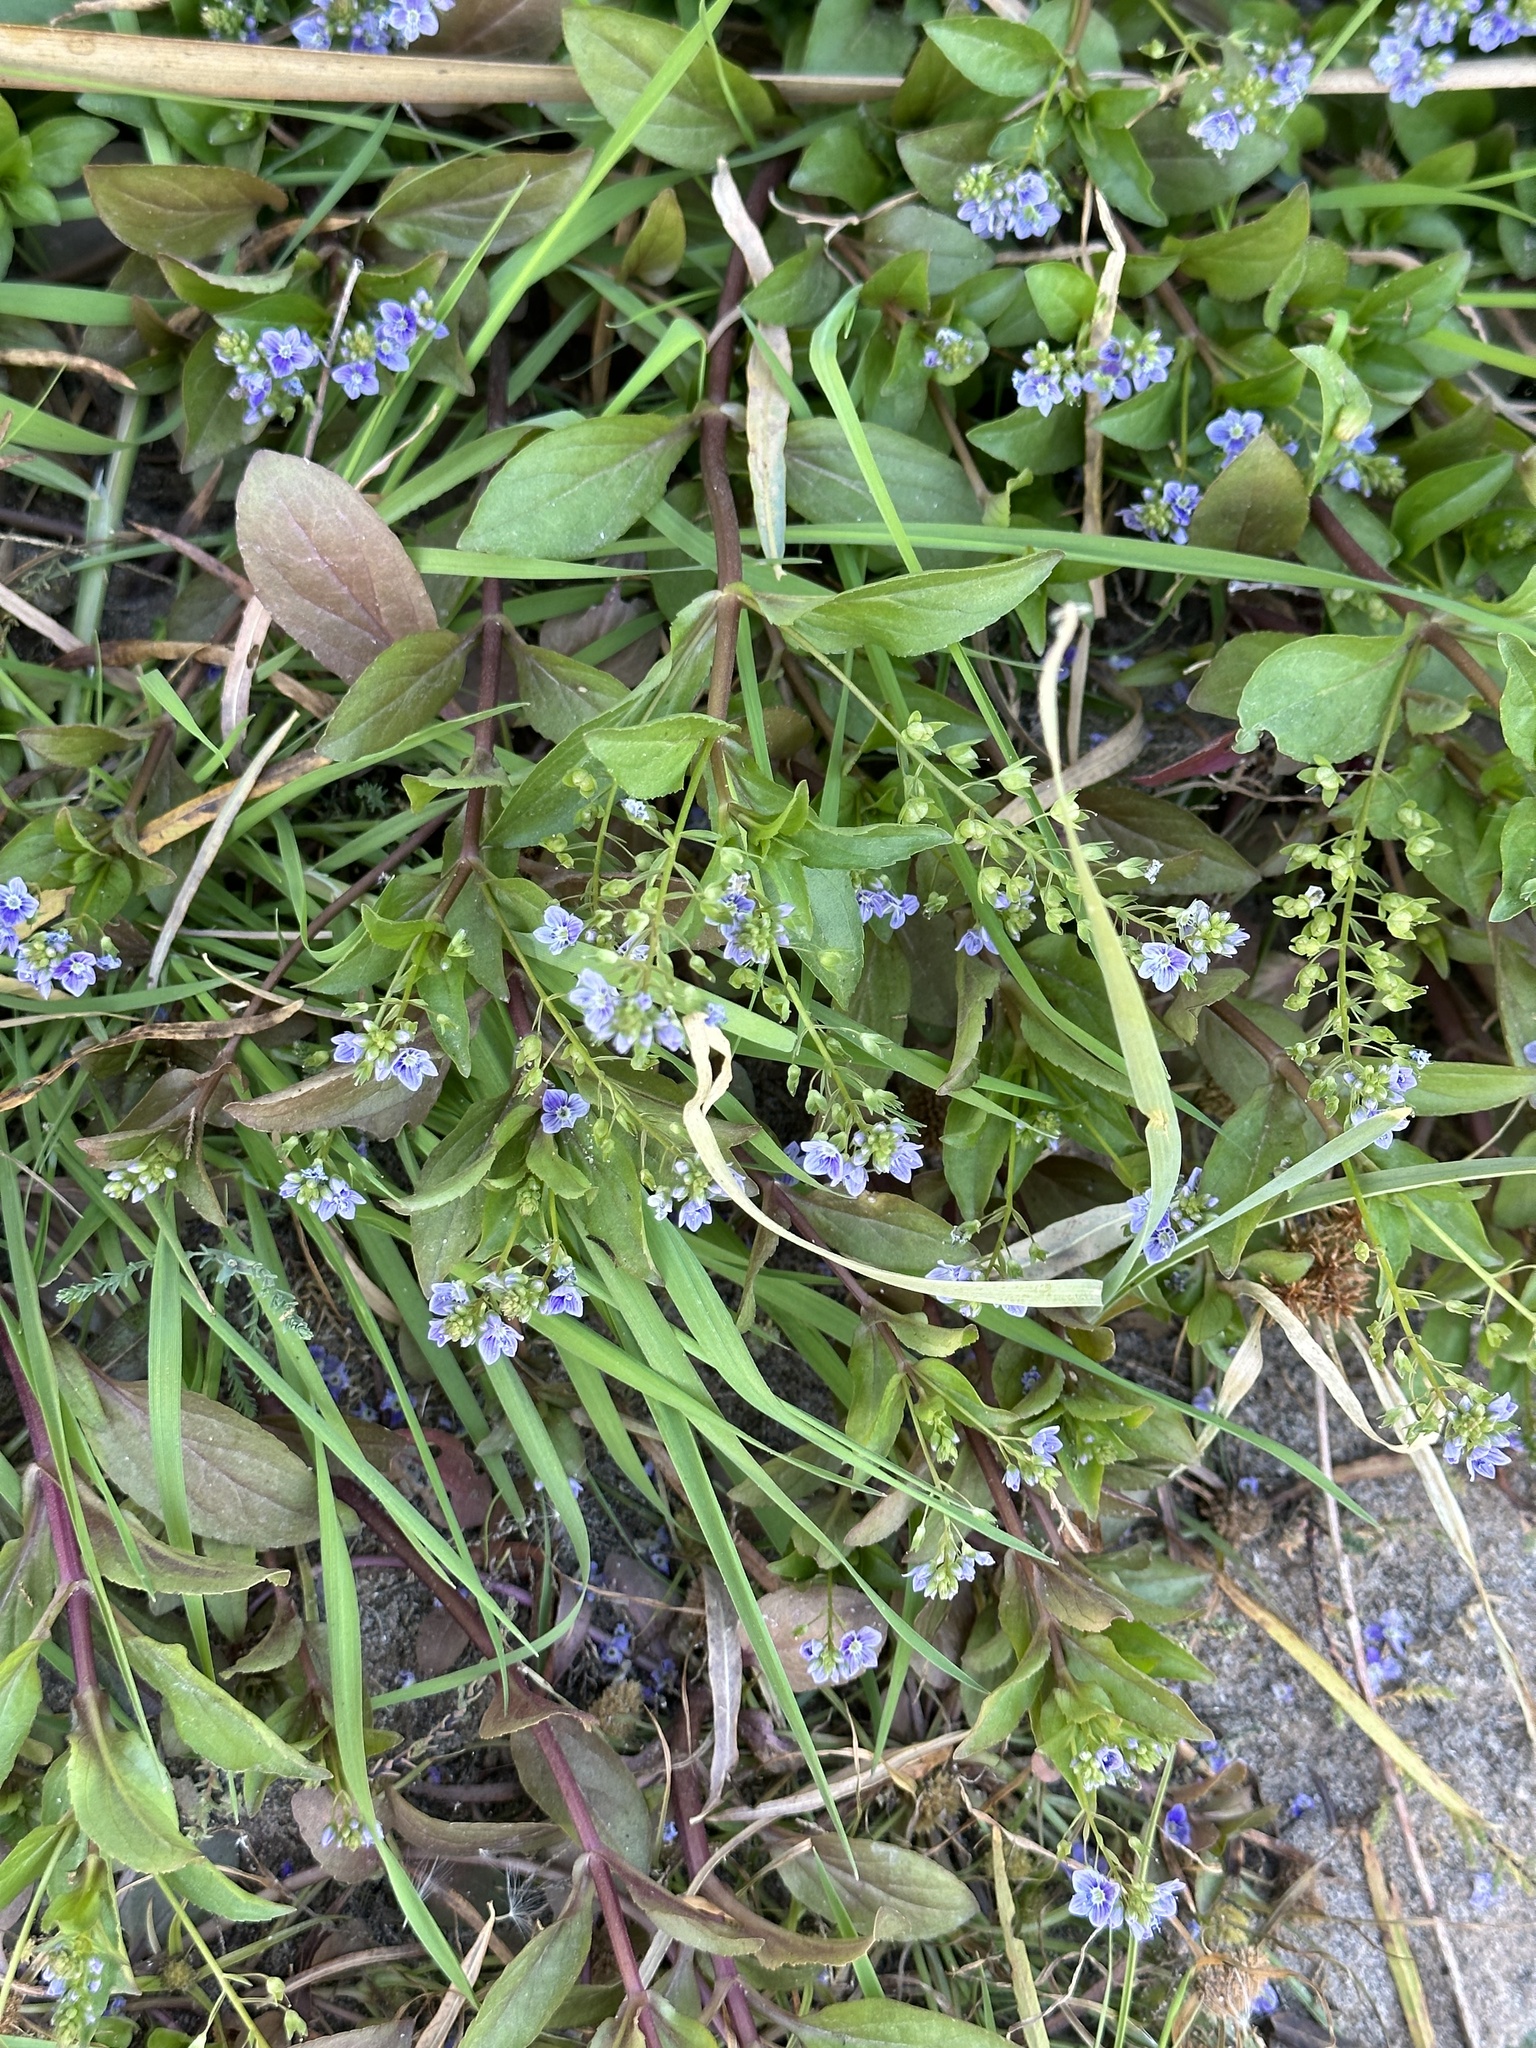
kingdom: Plantae
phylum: Tracheophyta
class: Magnoliopsida
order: Lamiales
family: Plantaginaceae
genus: Veronica
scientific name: Veronica anagallis-aquatica
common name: Water speedwell
